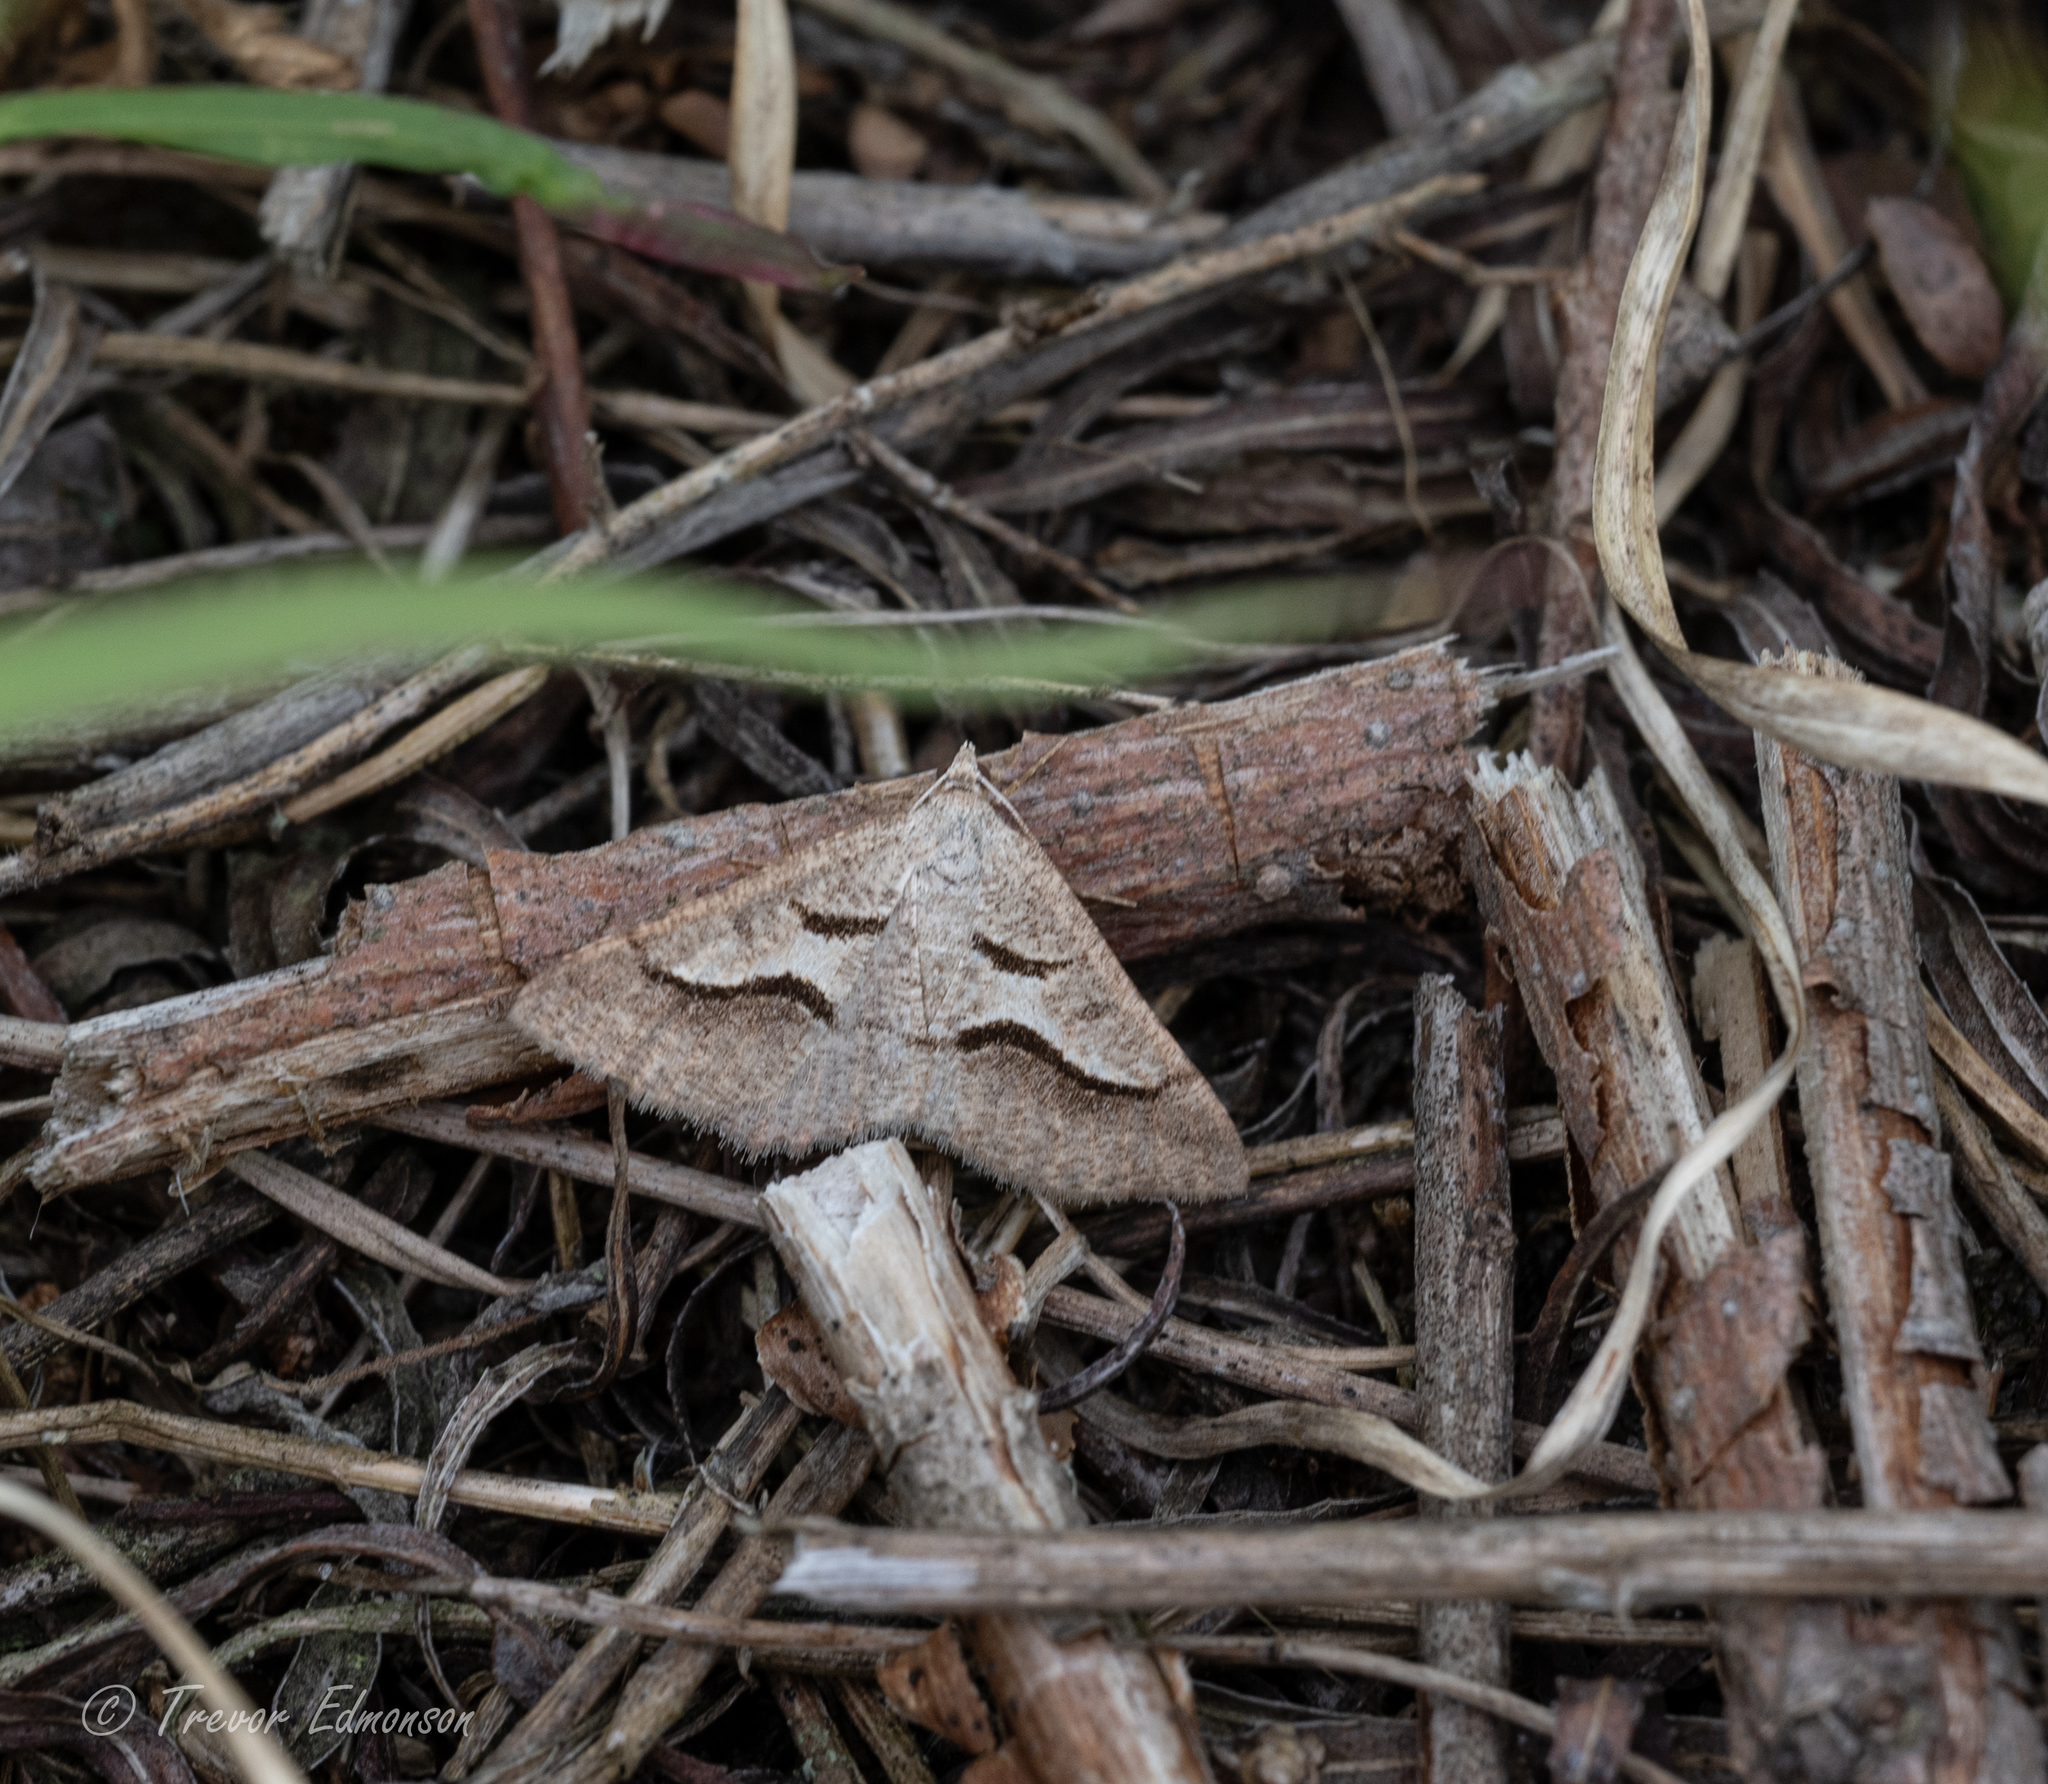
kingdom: Animalia
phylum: Arthropoda
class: Insecta
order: Lepidoptera
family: Geometridae
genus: Digrammia
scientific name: Digrammia subminiata
